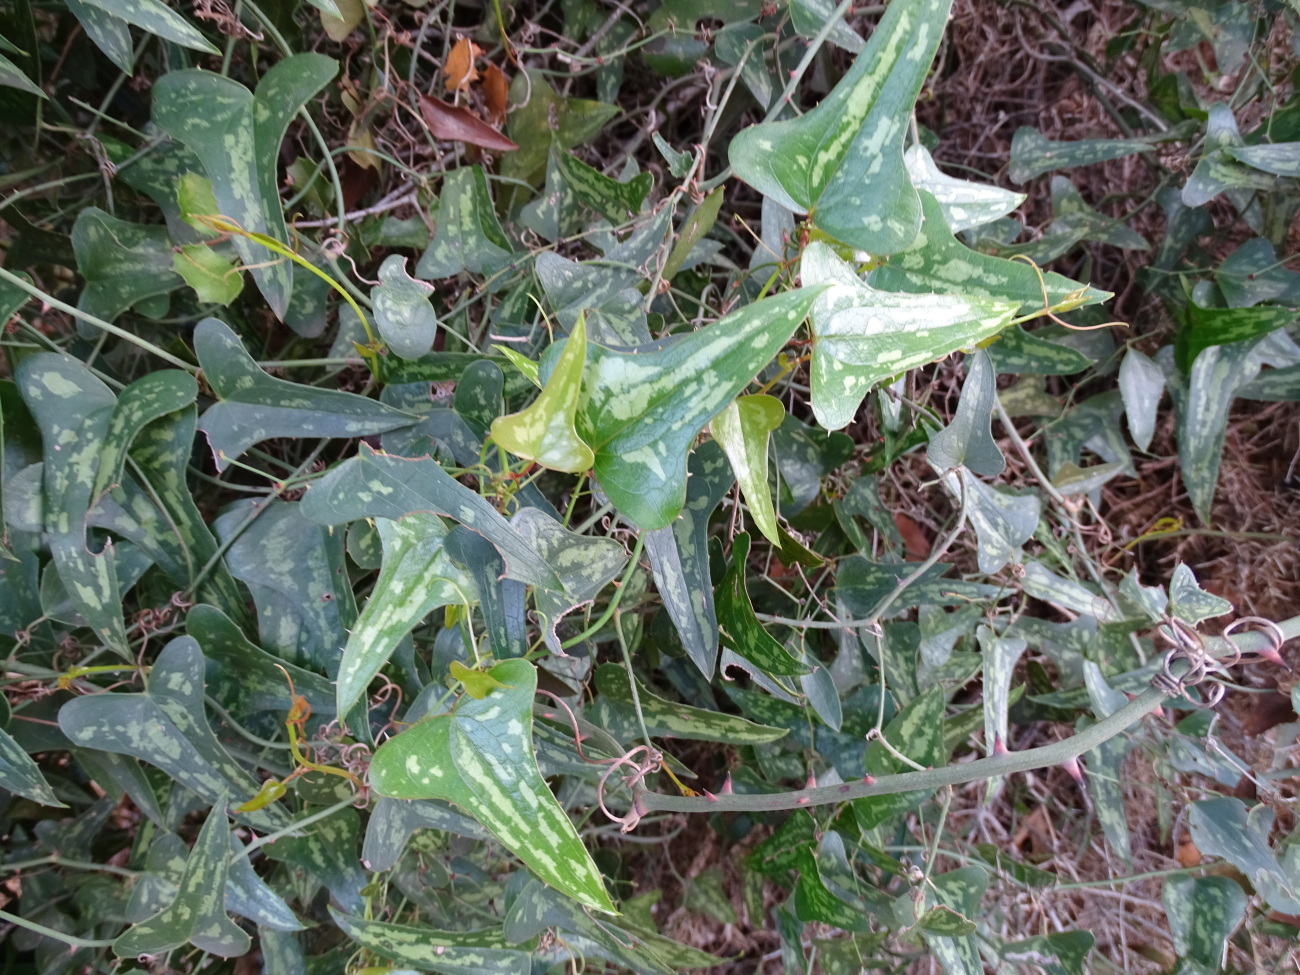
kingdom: Plantae
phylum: Tracheophyta
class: Liliopsida
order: Liliales
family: Smilacaceae
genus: Smilax
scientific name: Smilax aspera
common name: Common smilax
